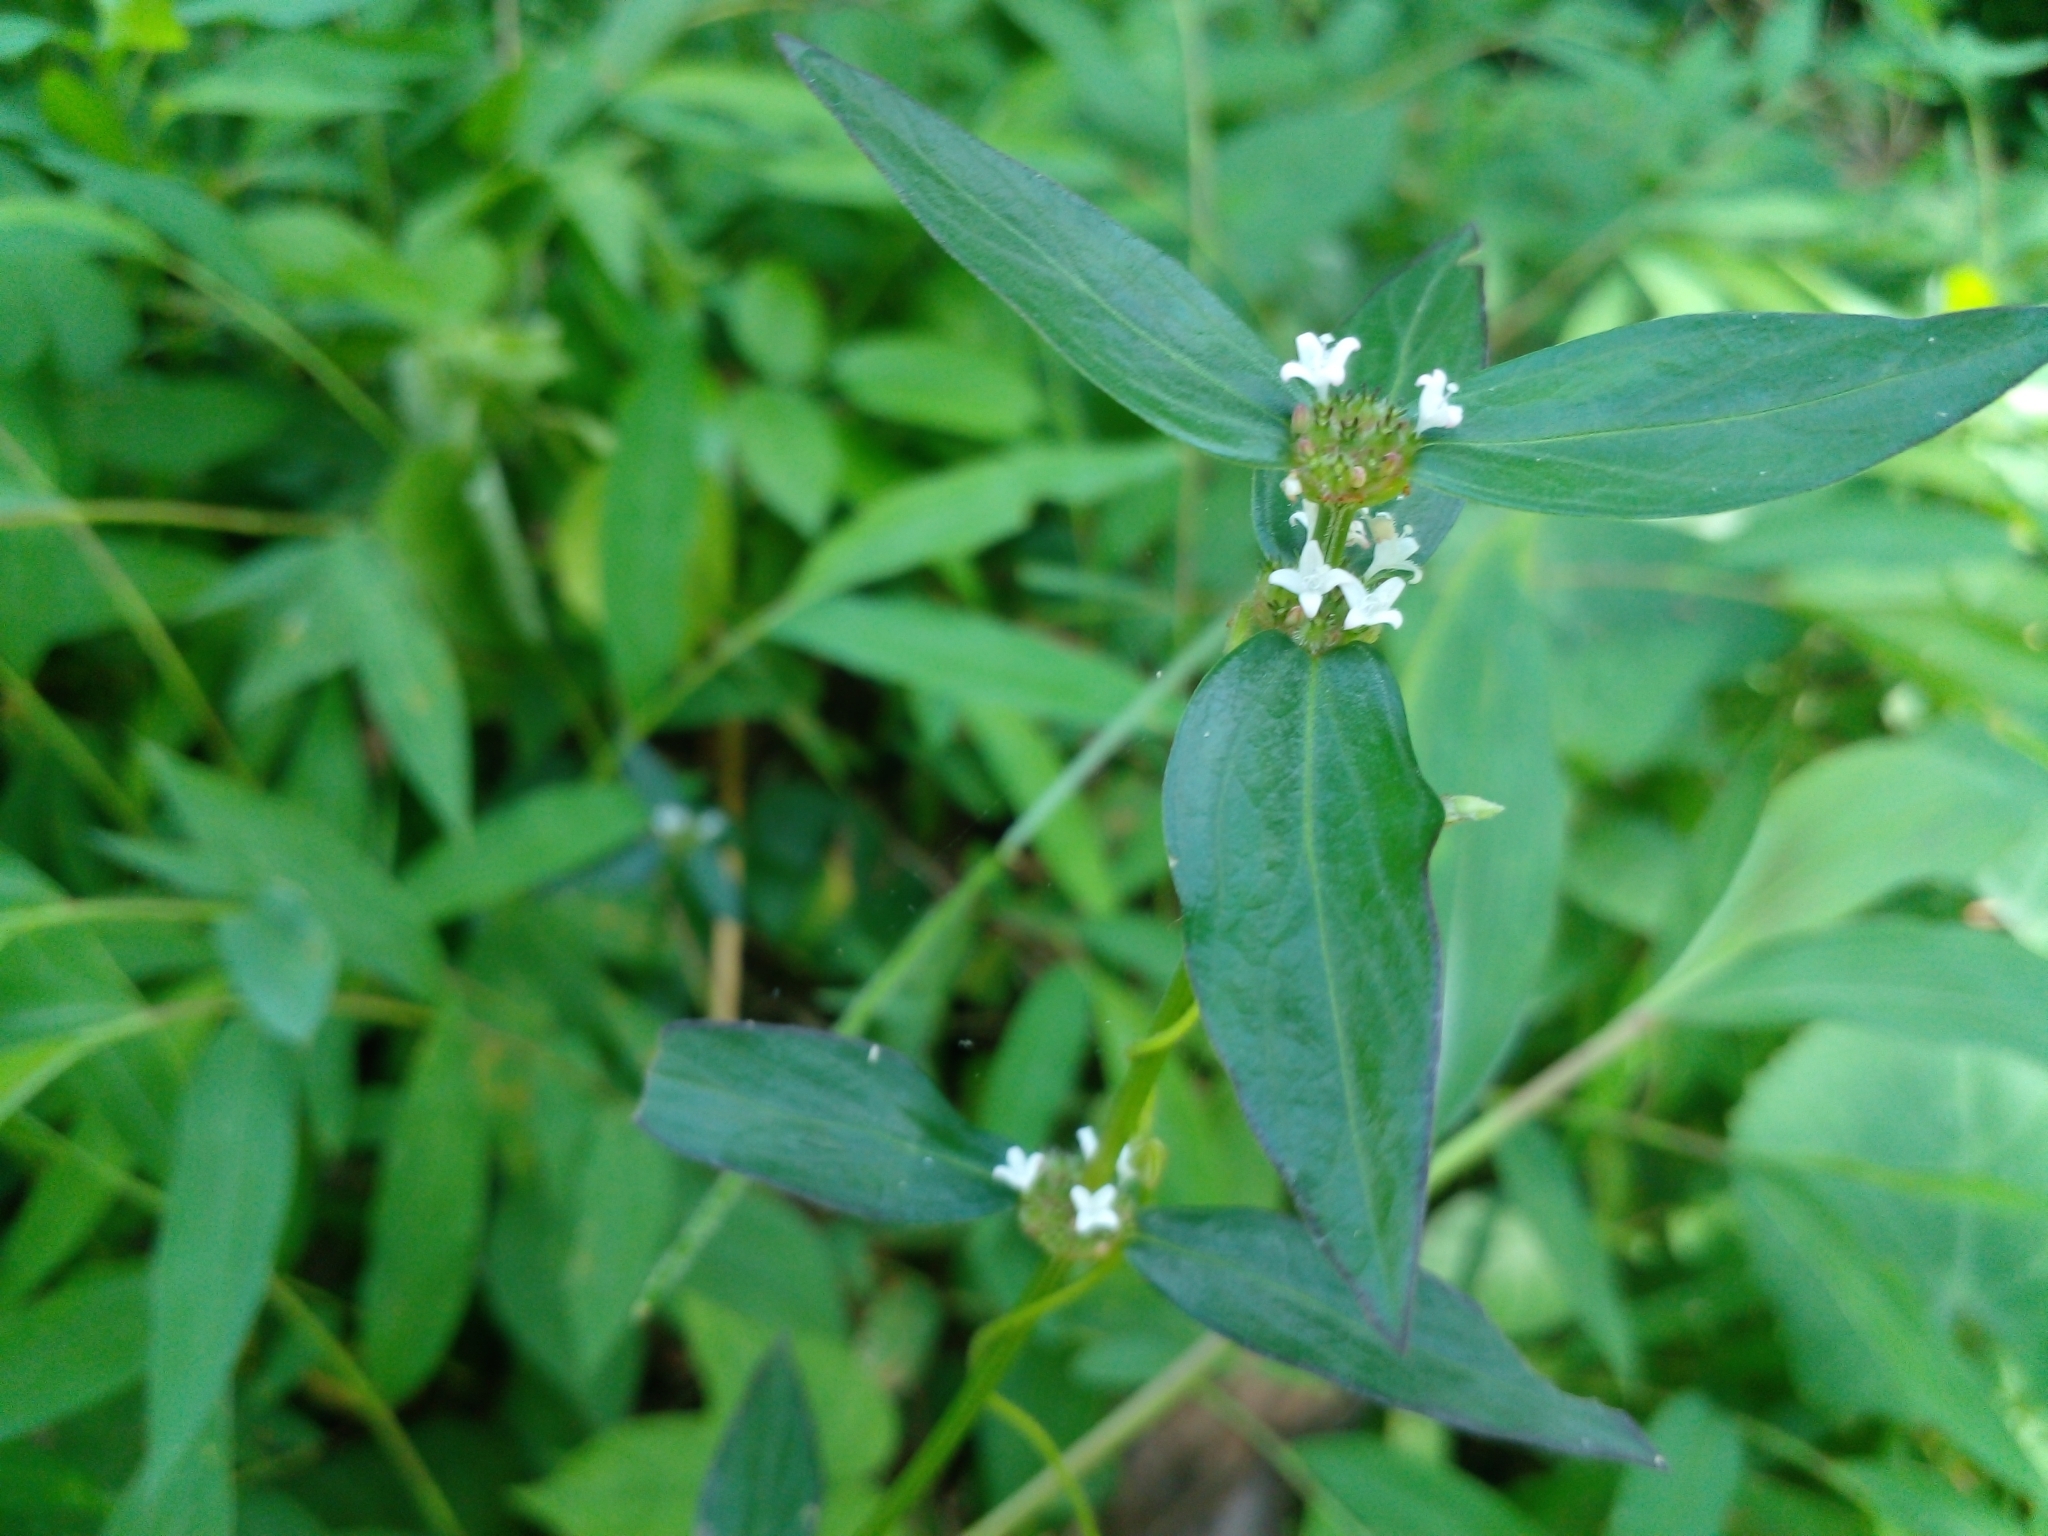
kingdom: Plantae
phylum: Tracheophyta
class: Magnoliopsida
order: Gentianales
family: Rubiaceae
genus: Spermacoce
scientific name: Spermacoce remota
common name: Woodland false buttonweed
